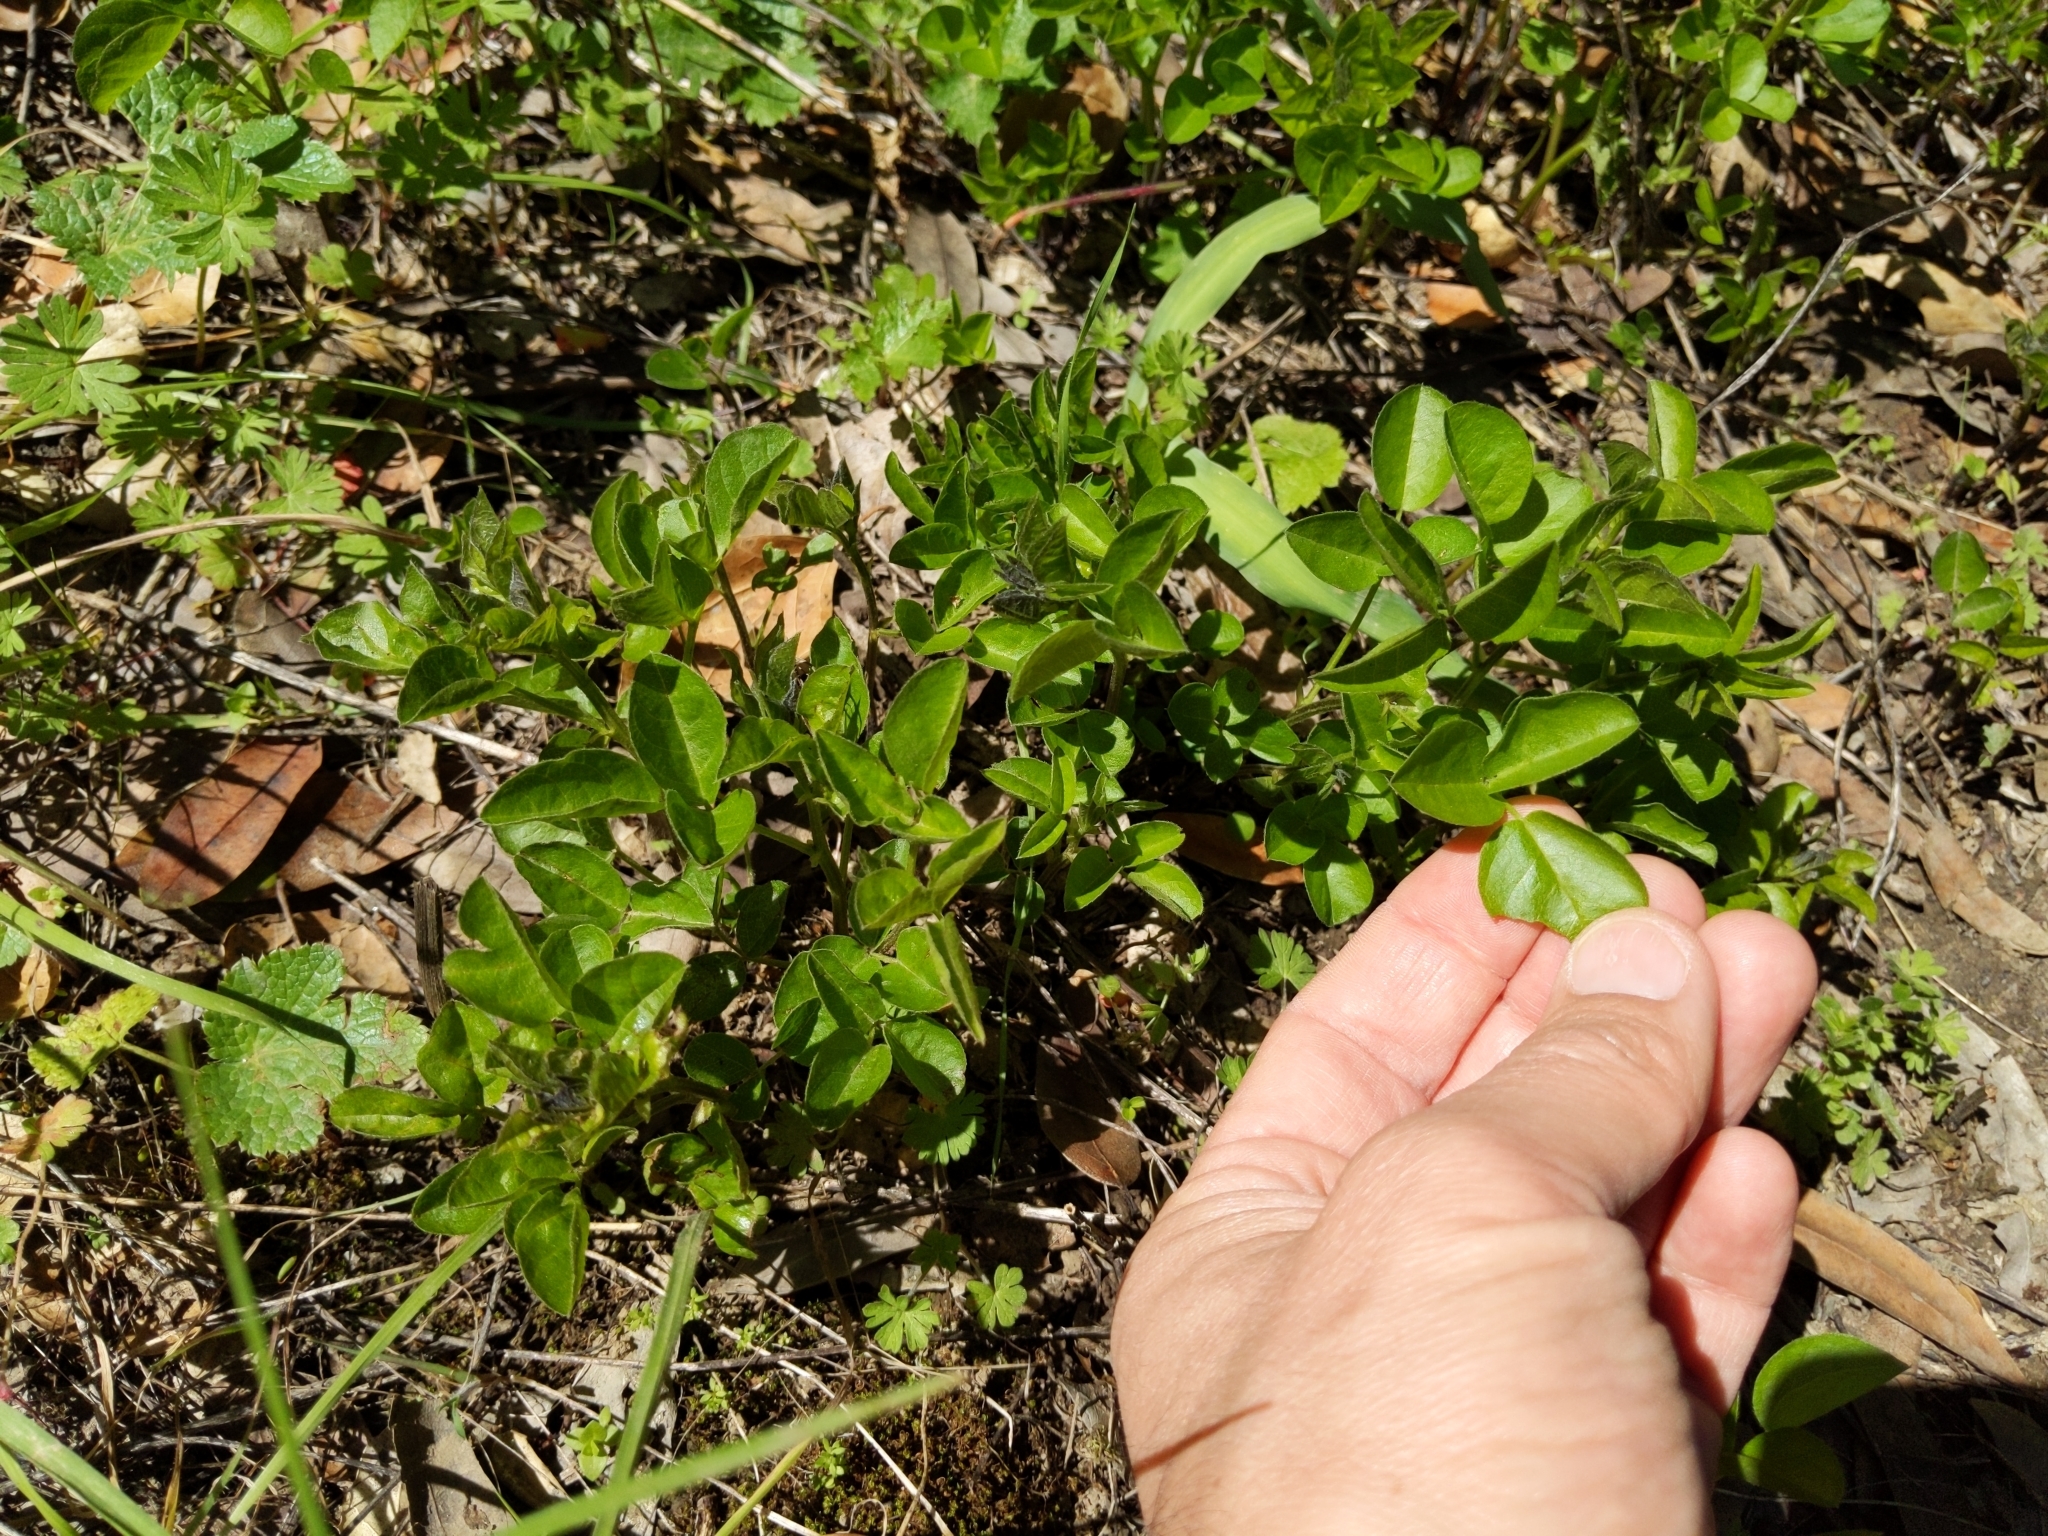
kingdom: Plantae
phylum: Tracheophyta
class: Magnoliopsida
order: Fabales
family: Fabaceae
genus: Rupertia
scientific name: Rupertia physodes
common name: California-tea
